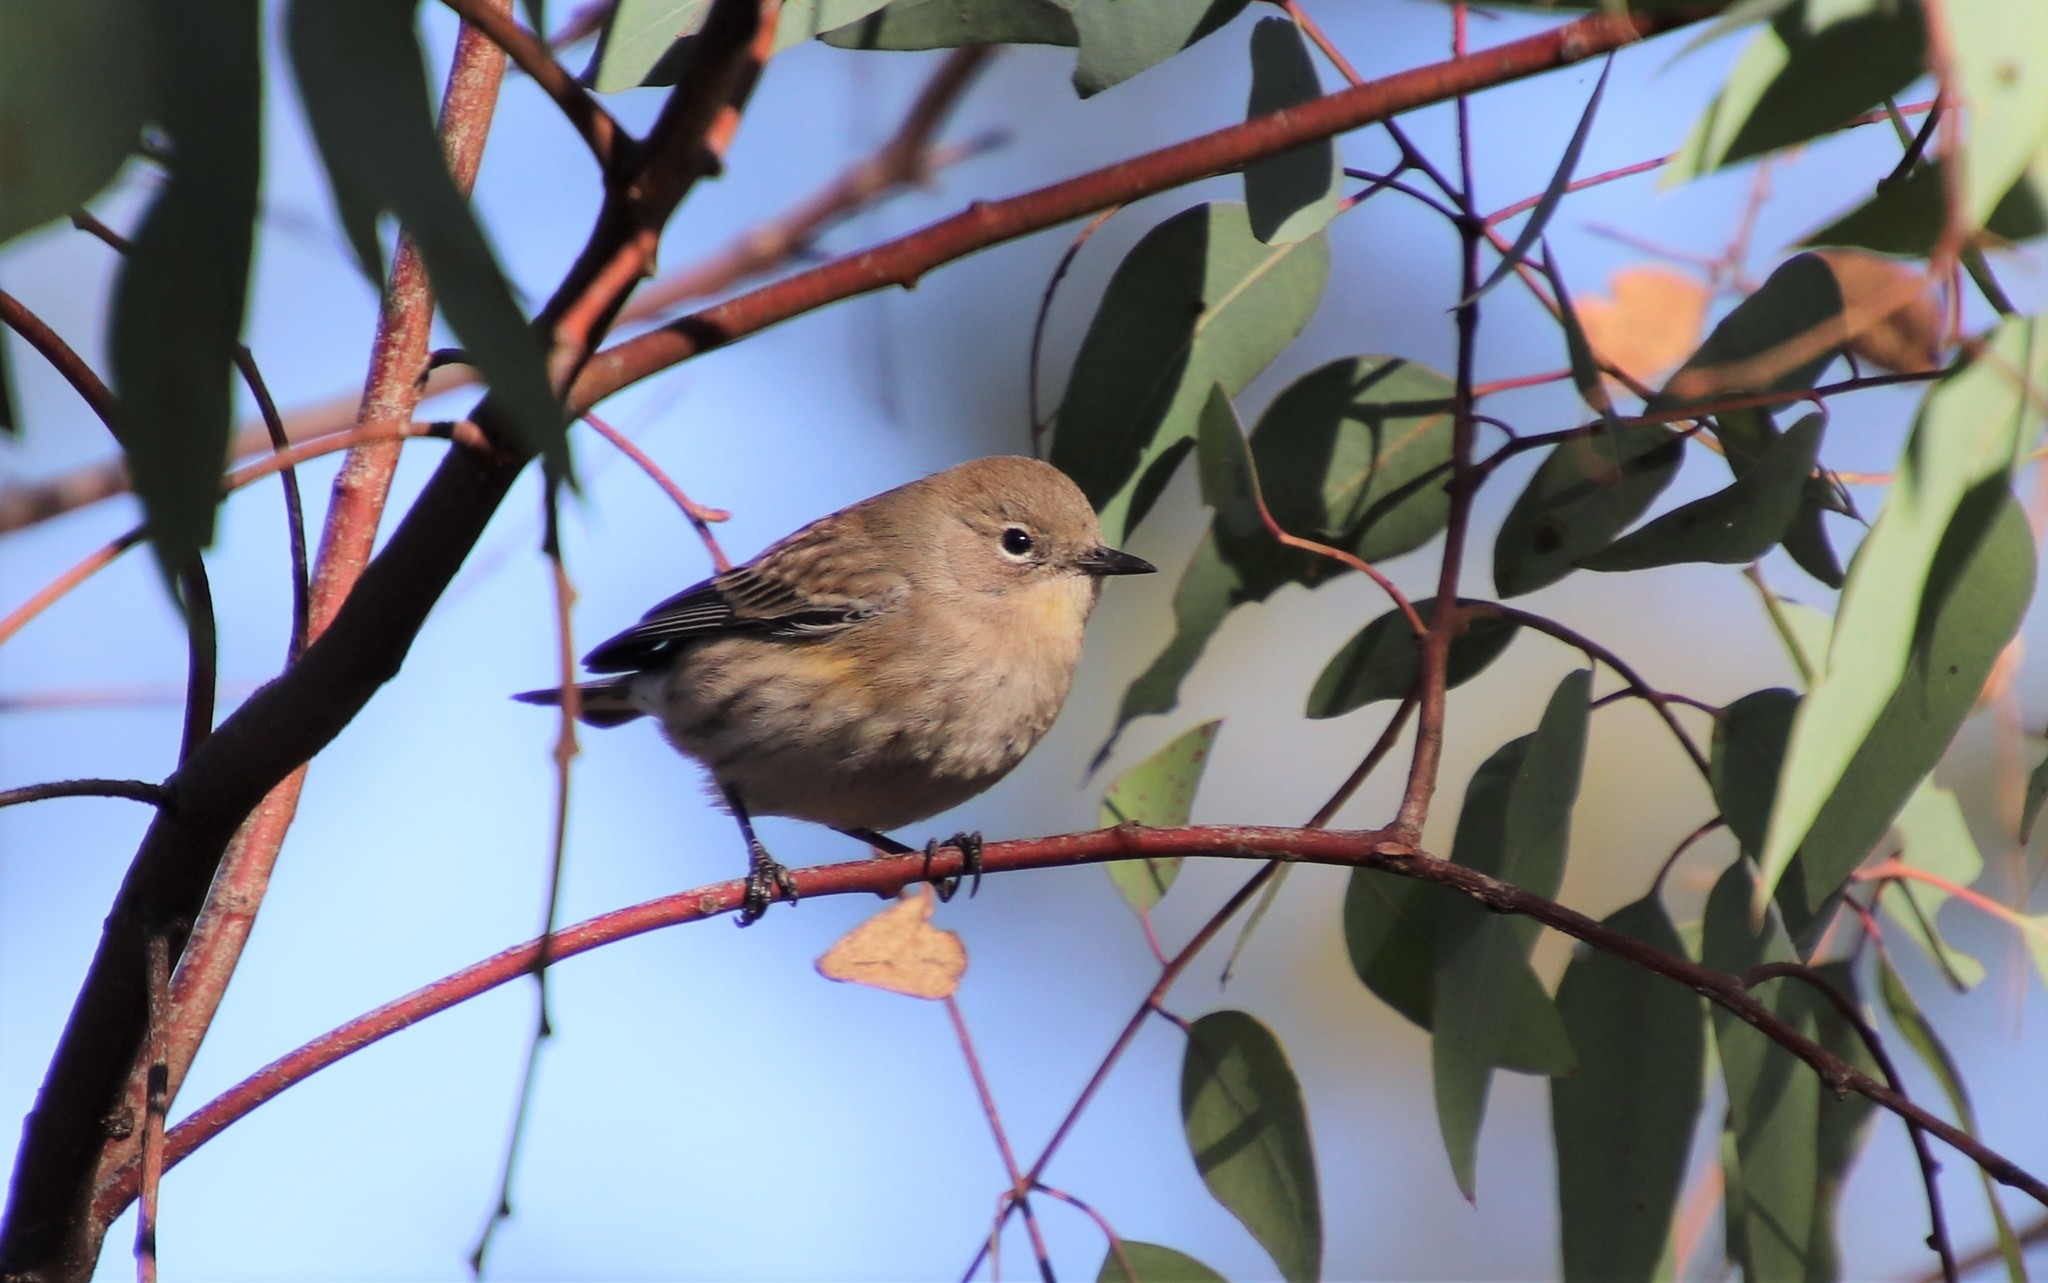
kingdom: Animalia
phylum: Chordata
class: Aves
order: Passeriformes
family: Parulidae
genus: Setophaga
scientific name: Setophaga auduboni
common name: Audubon's warbler
